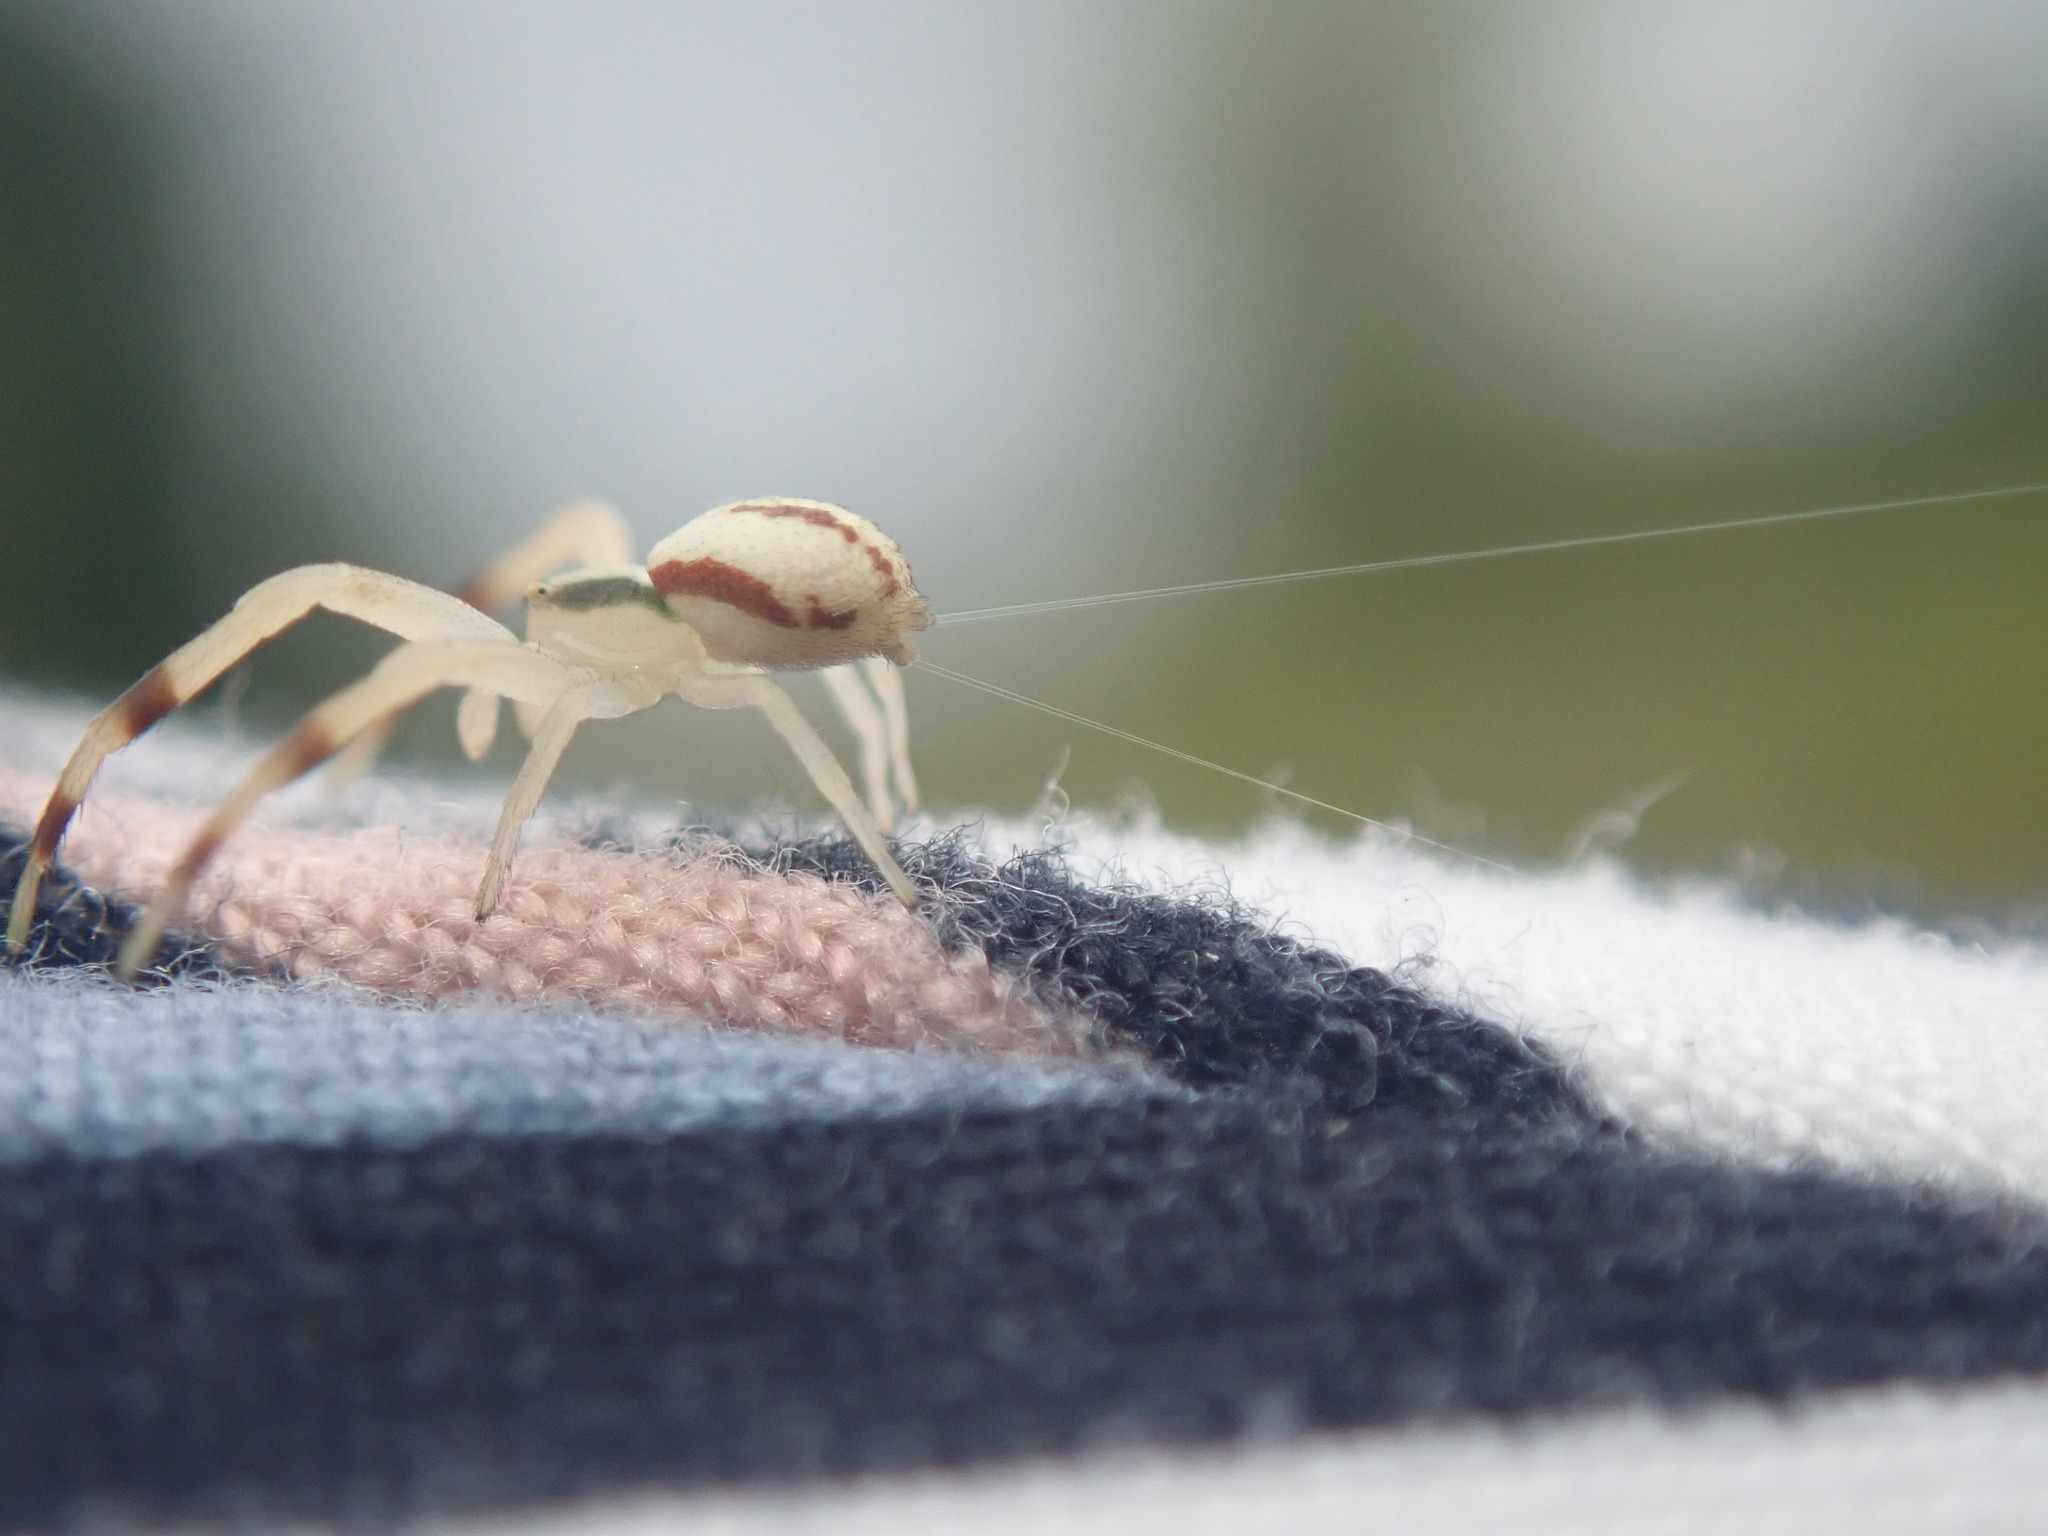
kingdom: Animalia
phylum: Arthropoda
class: Arachnida
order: Araneae
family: Thomisidae
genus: Misumena
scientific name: Misumena vatia
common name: Goldenrod crab spider
